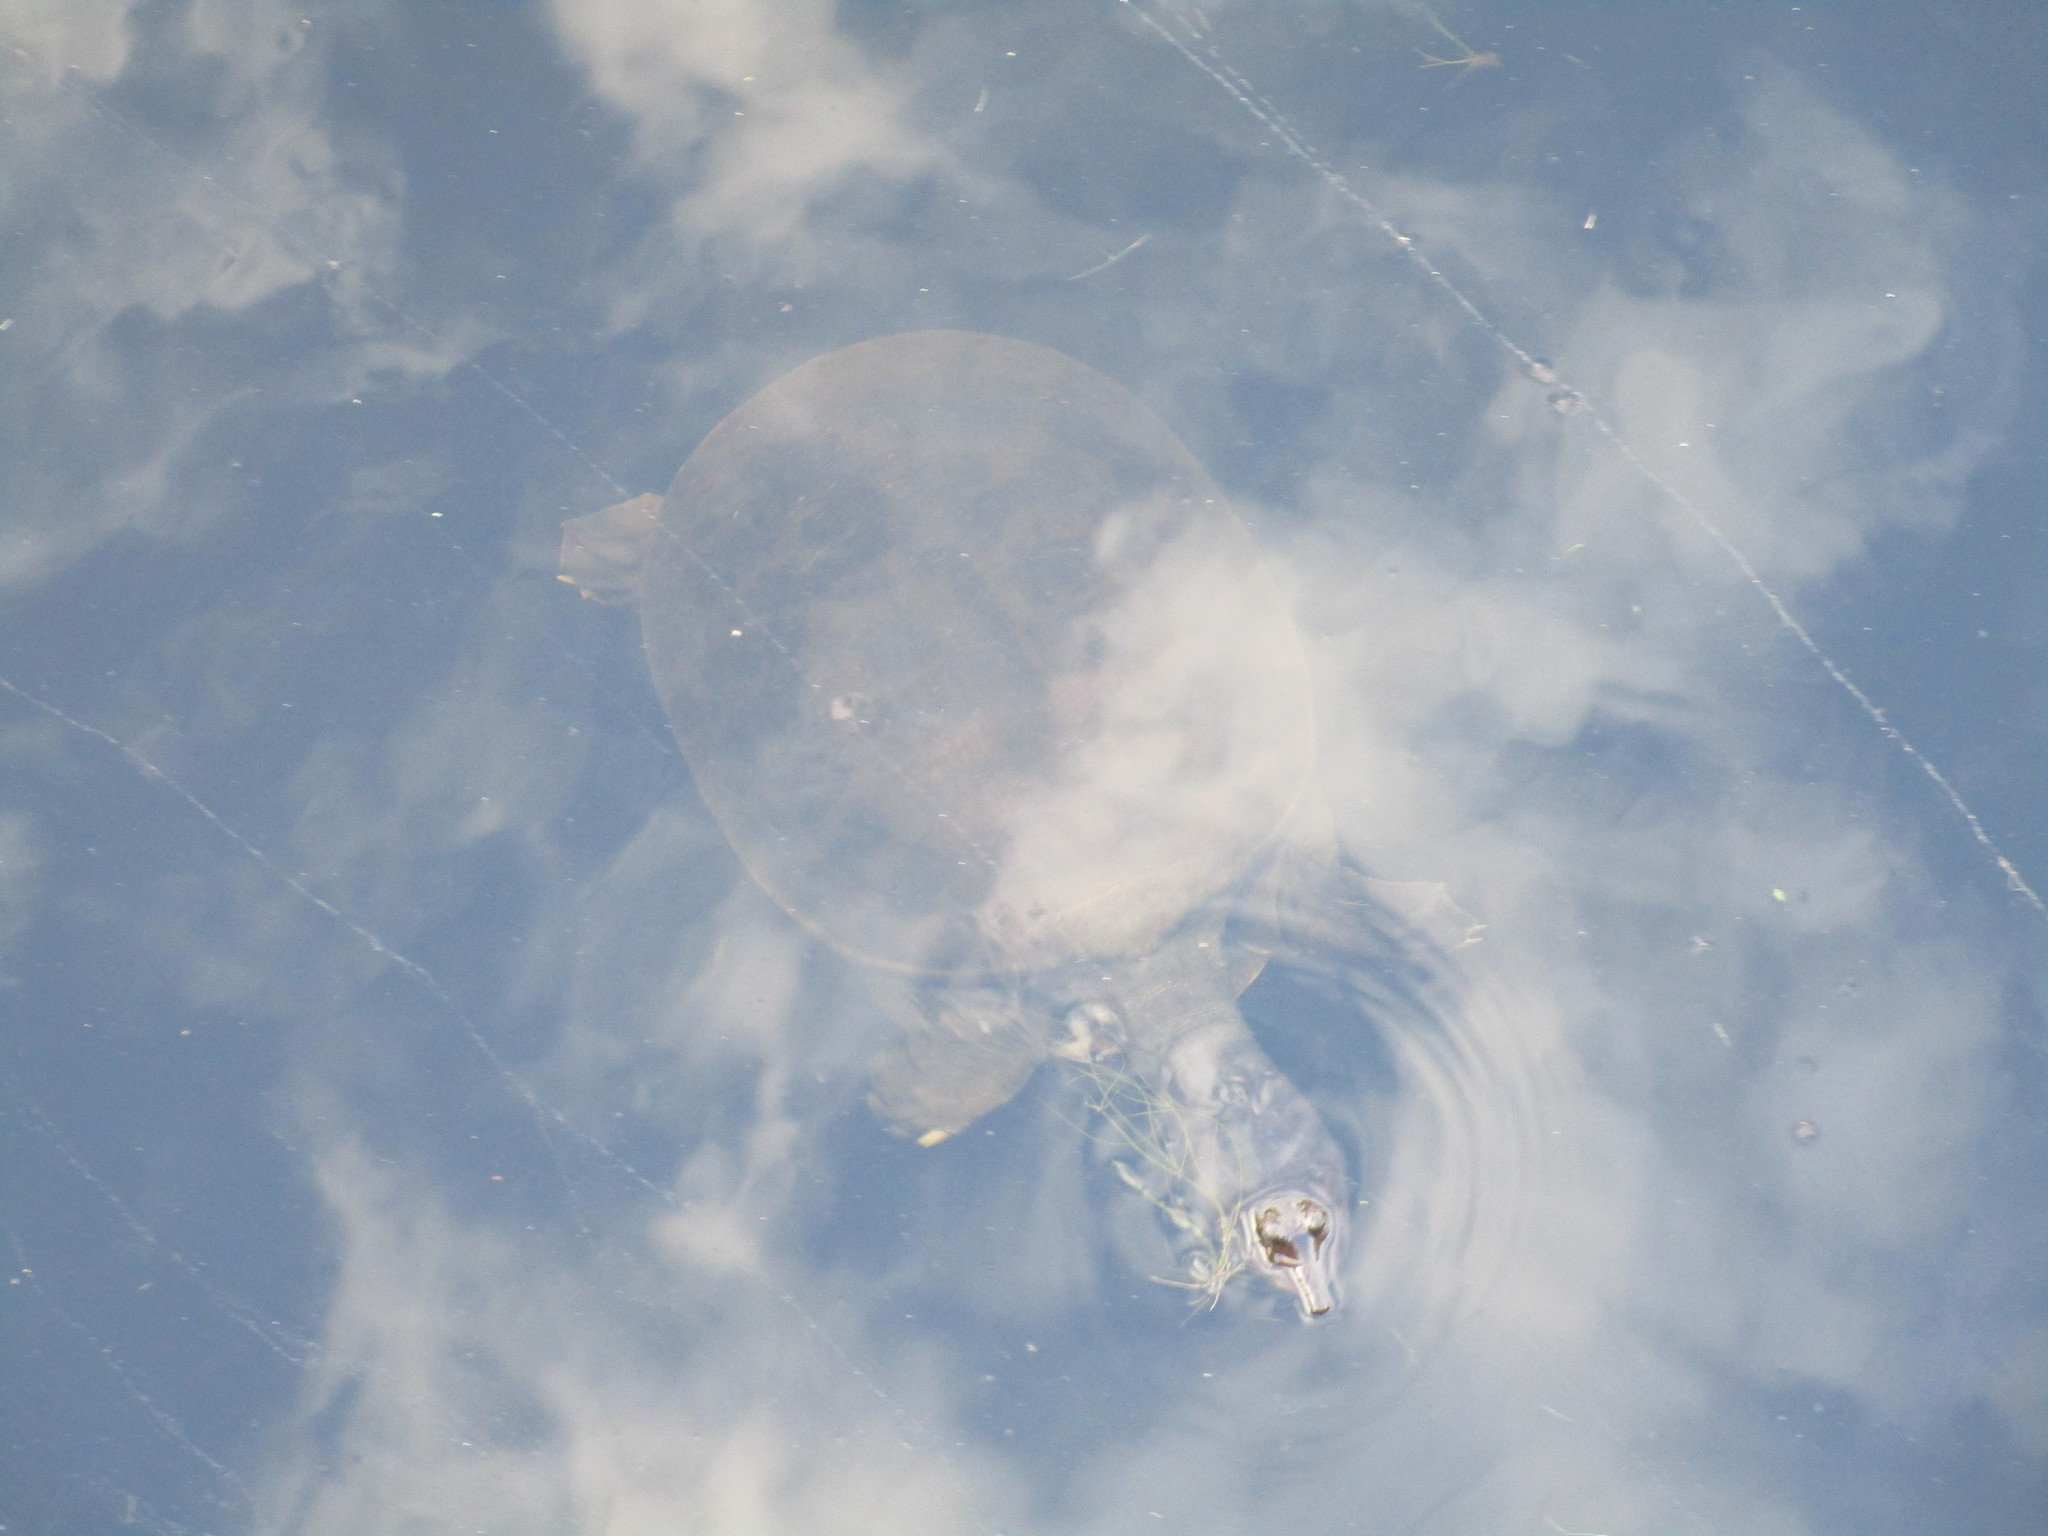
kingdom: Animalia
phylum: Chordata
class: Testudines
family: Trionychidae
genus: Apalone
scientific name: Apalone ferox
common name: Florida softshell turtle
